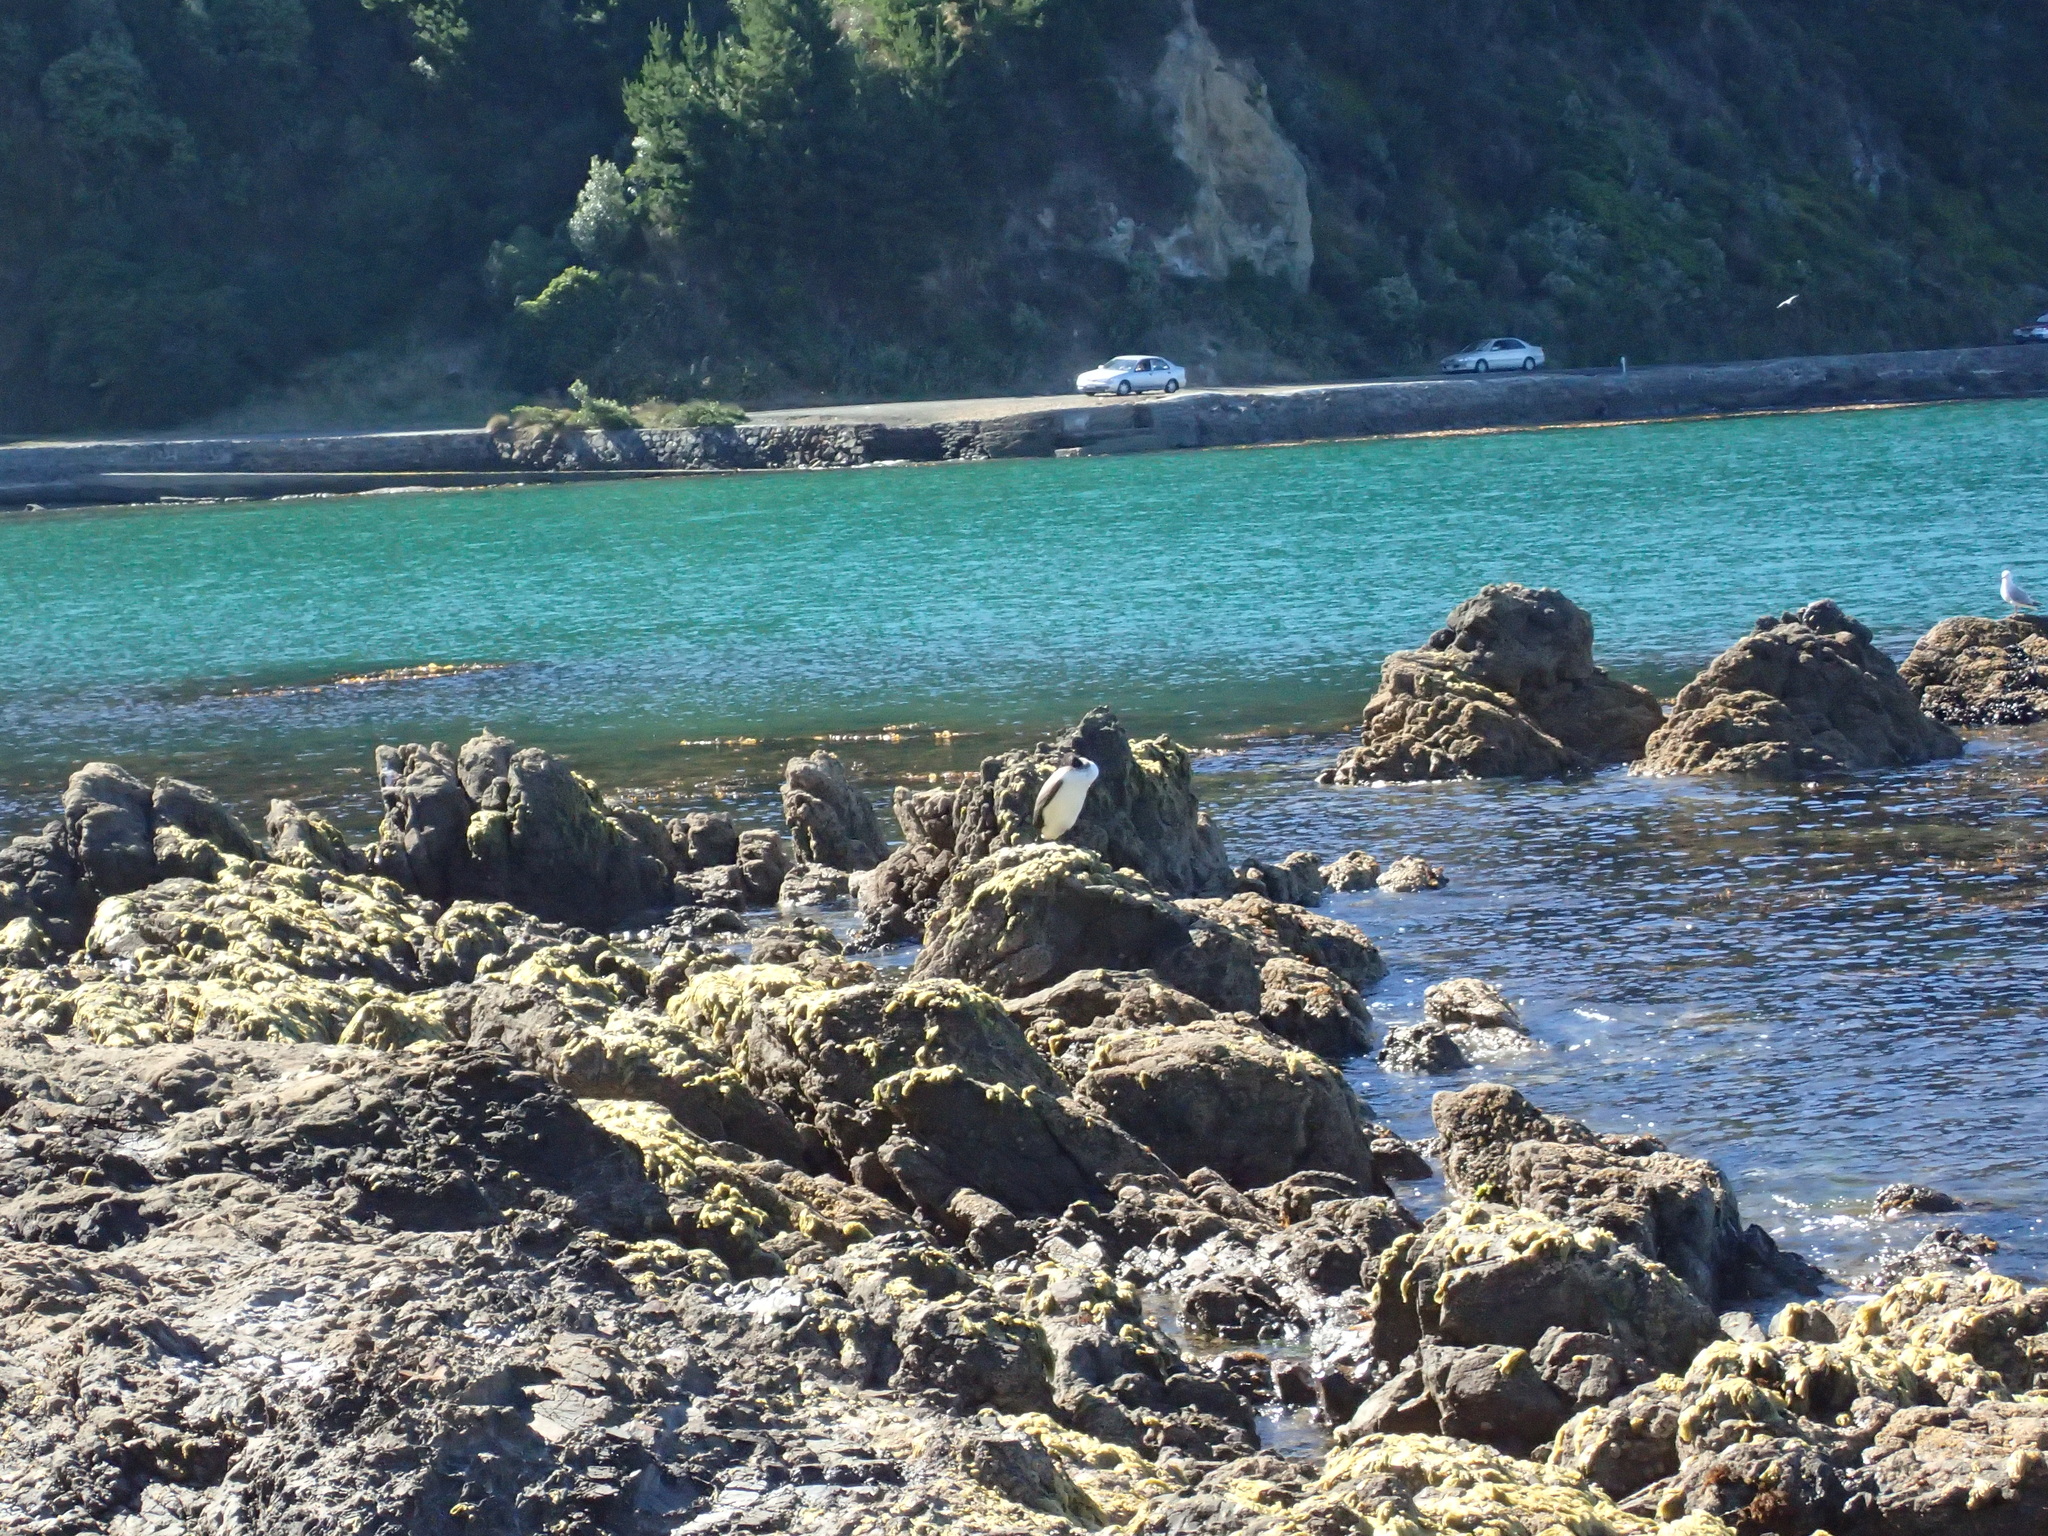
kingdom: Animalia
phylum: Chordata
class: Aves
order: Suliformes
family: Phalacrocoracidae
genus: Phalacrocorax
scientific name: Phalacrocorax varius
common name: Pied cormorant
